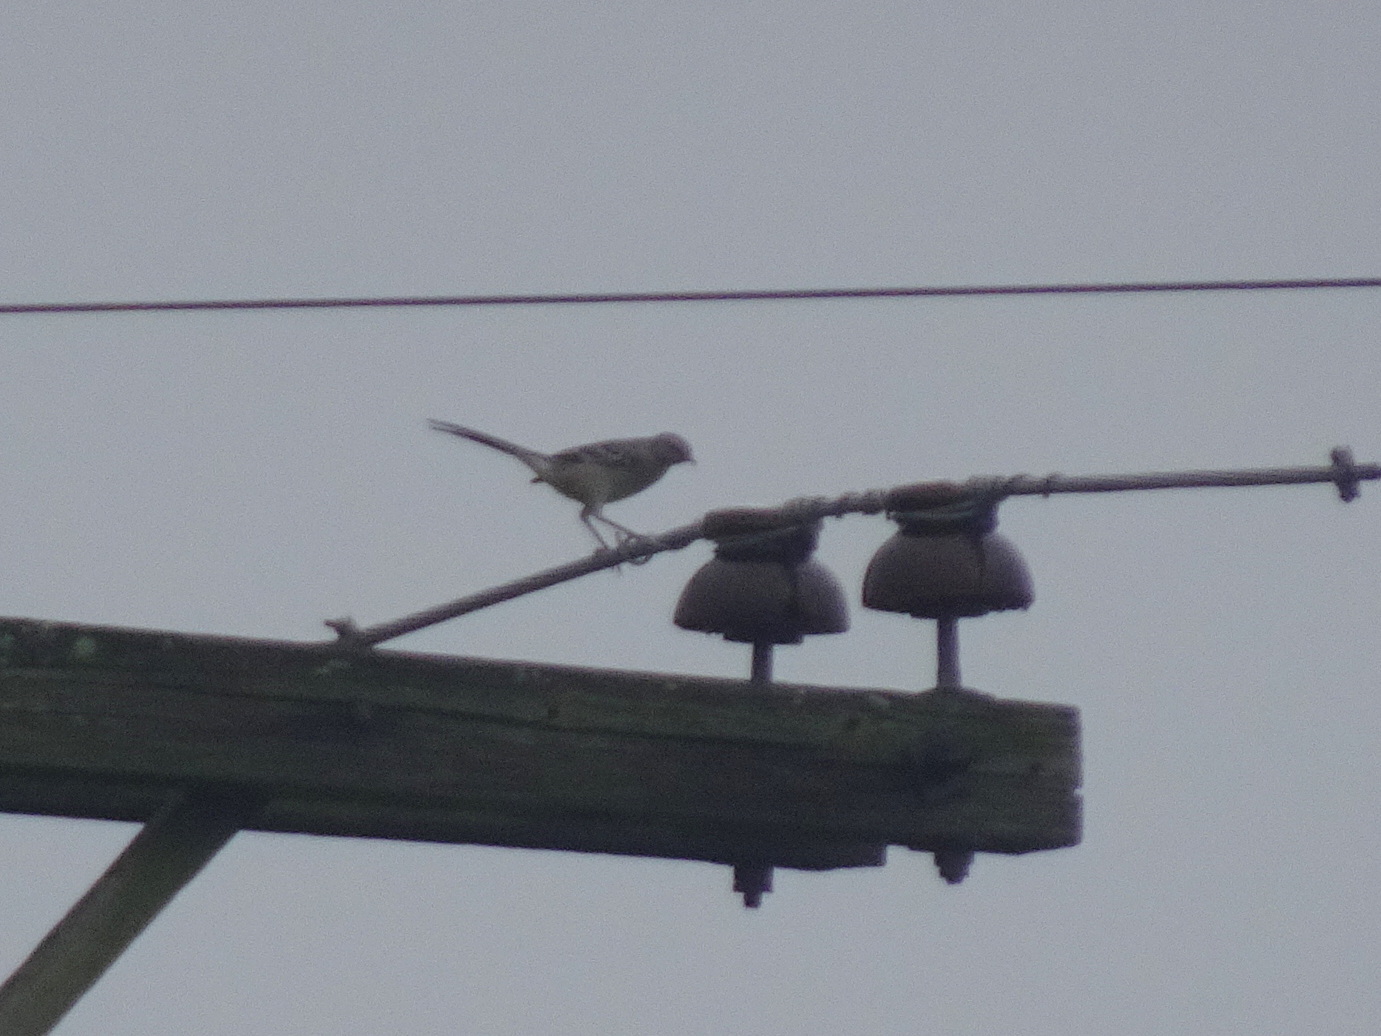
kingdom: Animalia
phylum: Chordata
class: Aves
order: Passeriformes
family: Mimidae
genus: Mimus
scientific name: Mimus polyglottos
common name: Northern mockingbird
